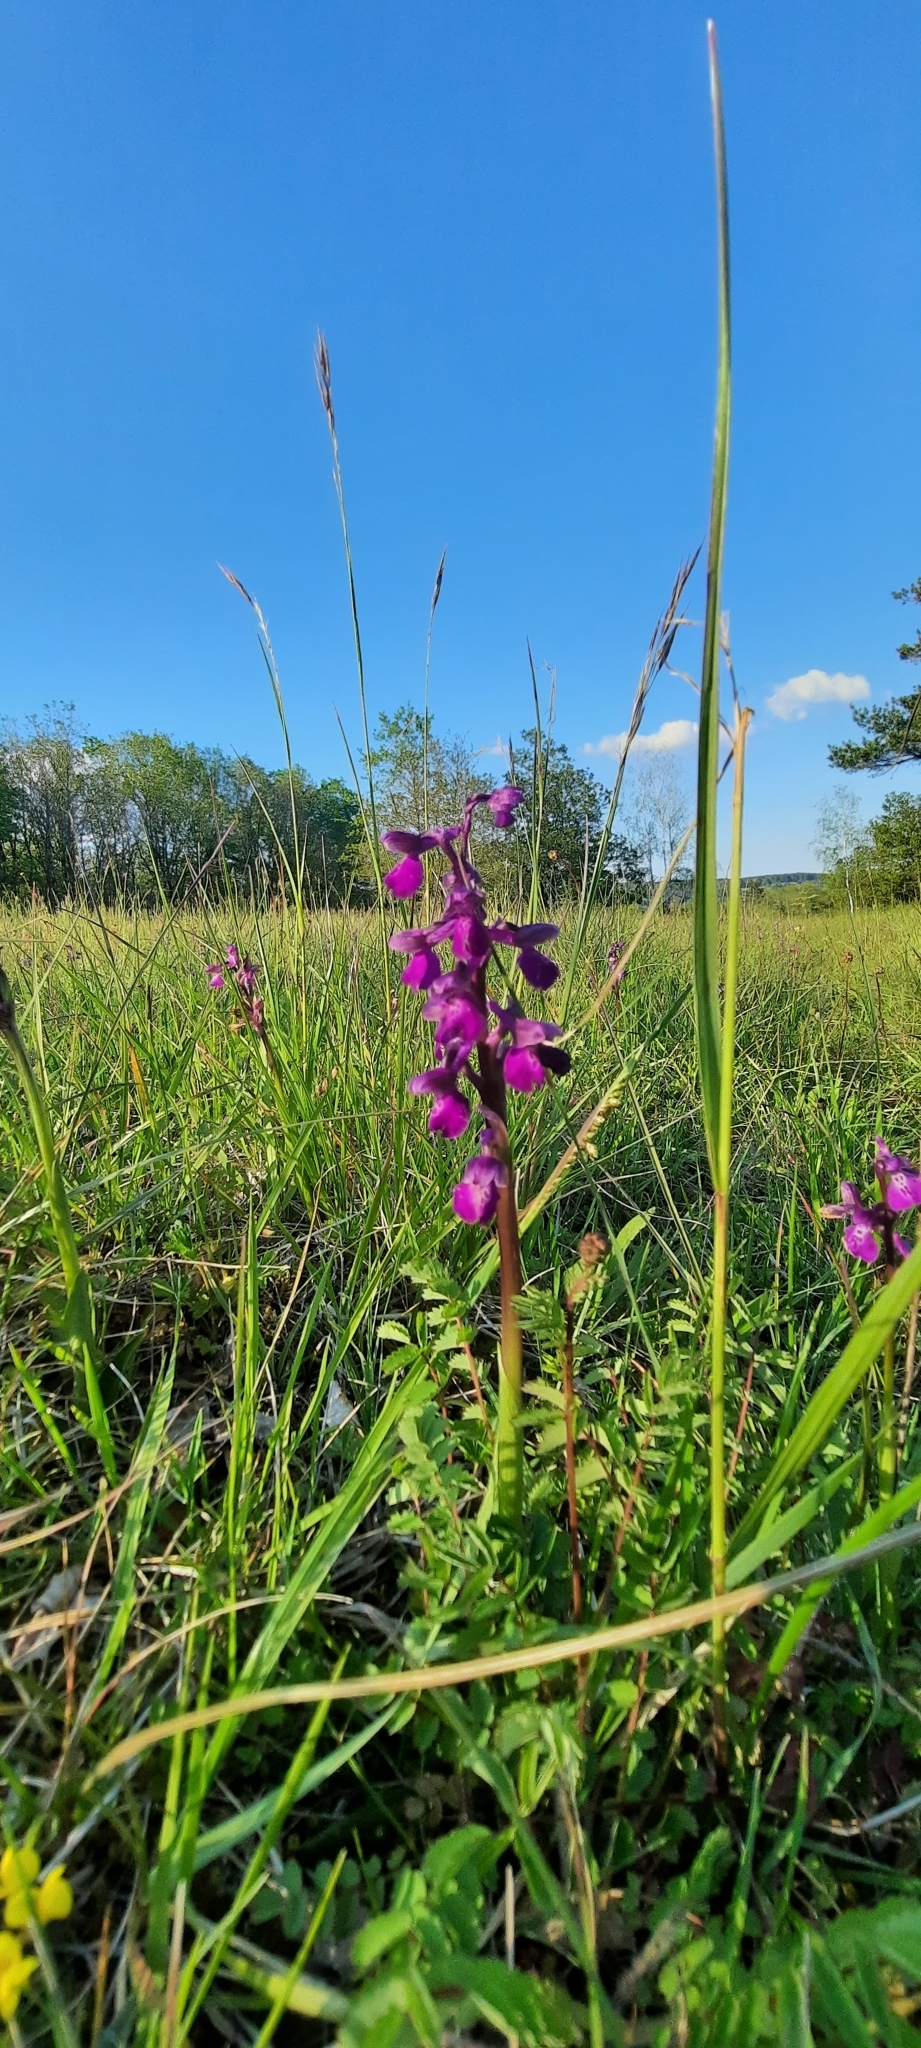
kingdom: Plantae
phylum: Tracheophyta
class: Liliopsida
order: Asparagales
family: Orchidaceae
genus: Anacamptis
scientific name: Anacamptis morio
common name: Green-winged orchid
